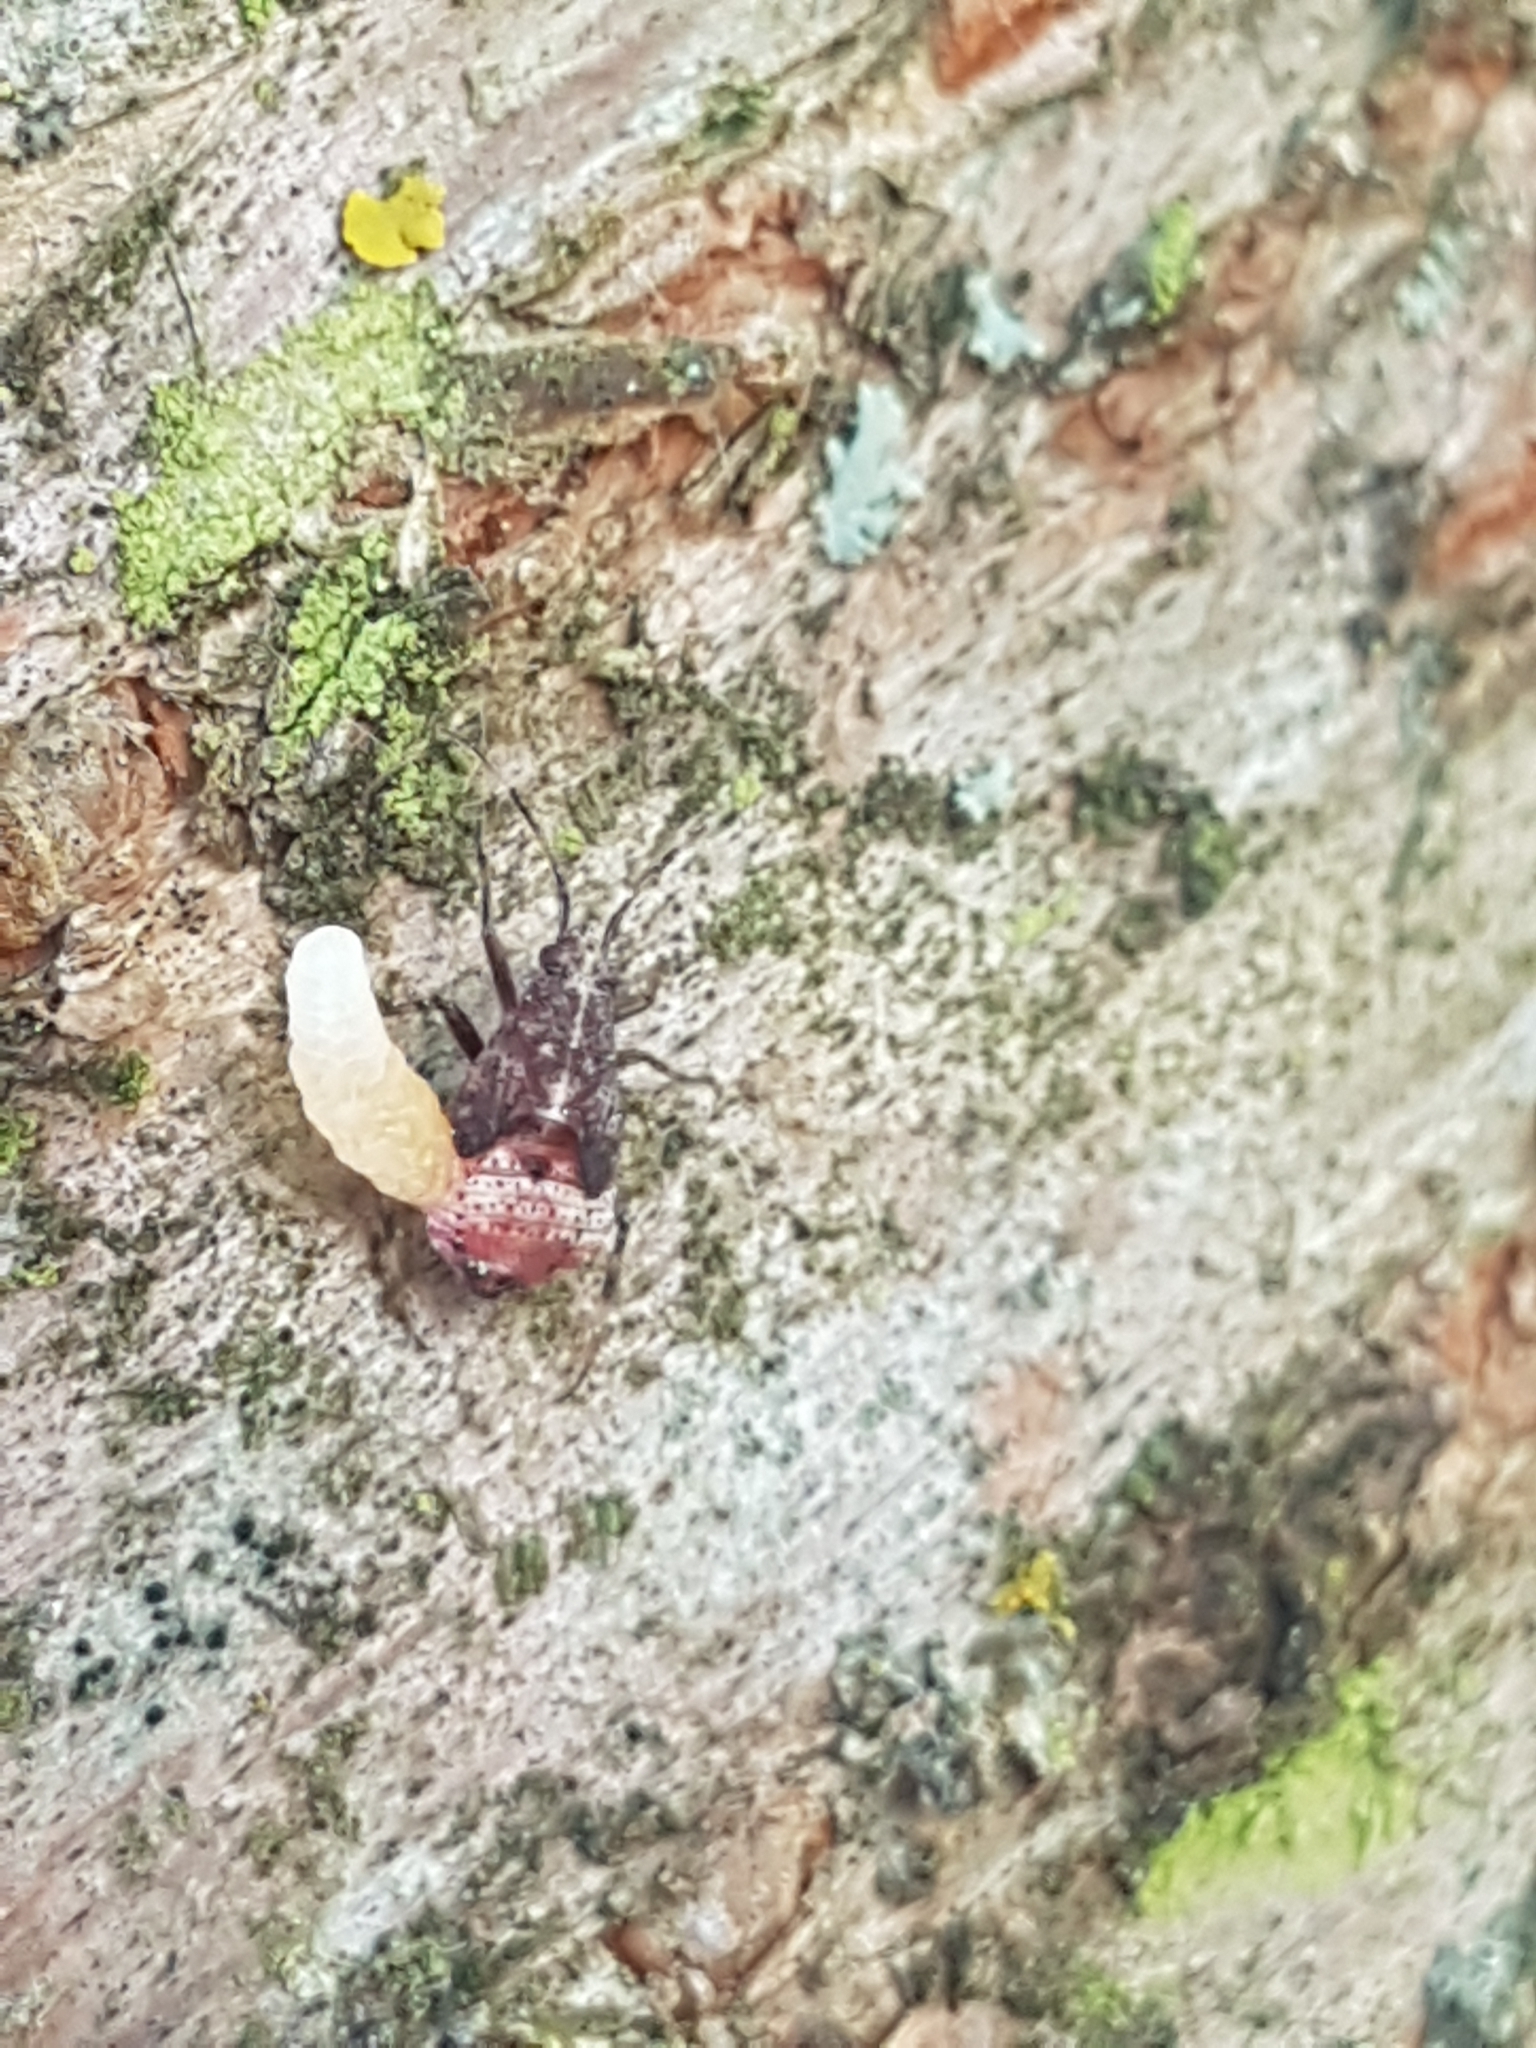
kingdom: Animalia
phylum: Arthropoda
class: Insecta
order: Hemiptera
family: Miridae
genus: Deraeocoris
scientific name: Deraeocoris flavilinea
